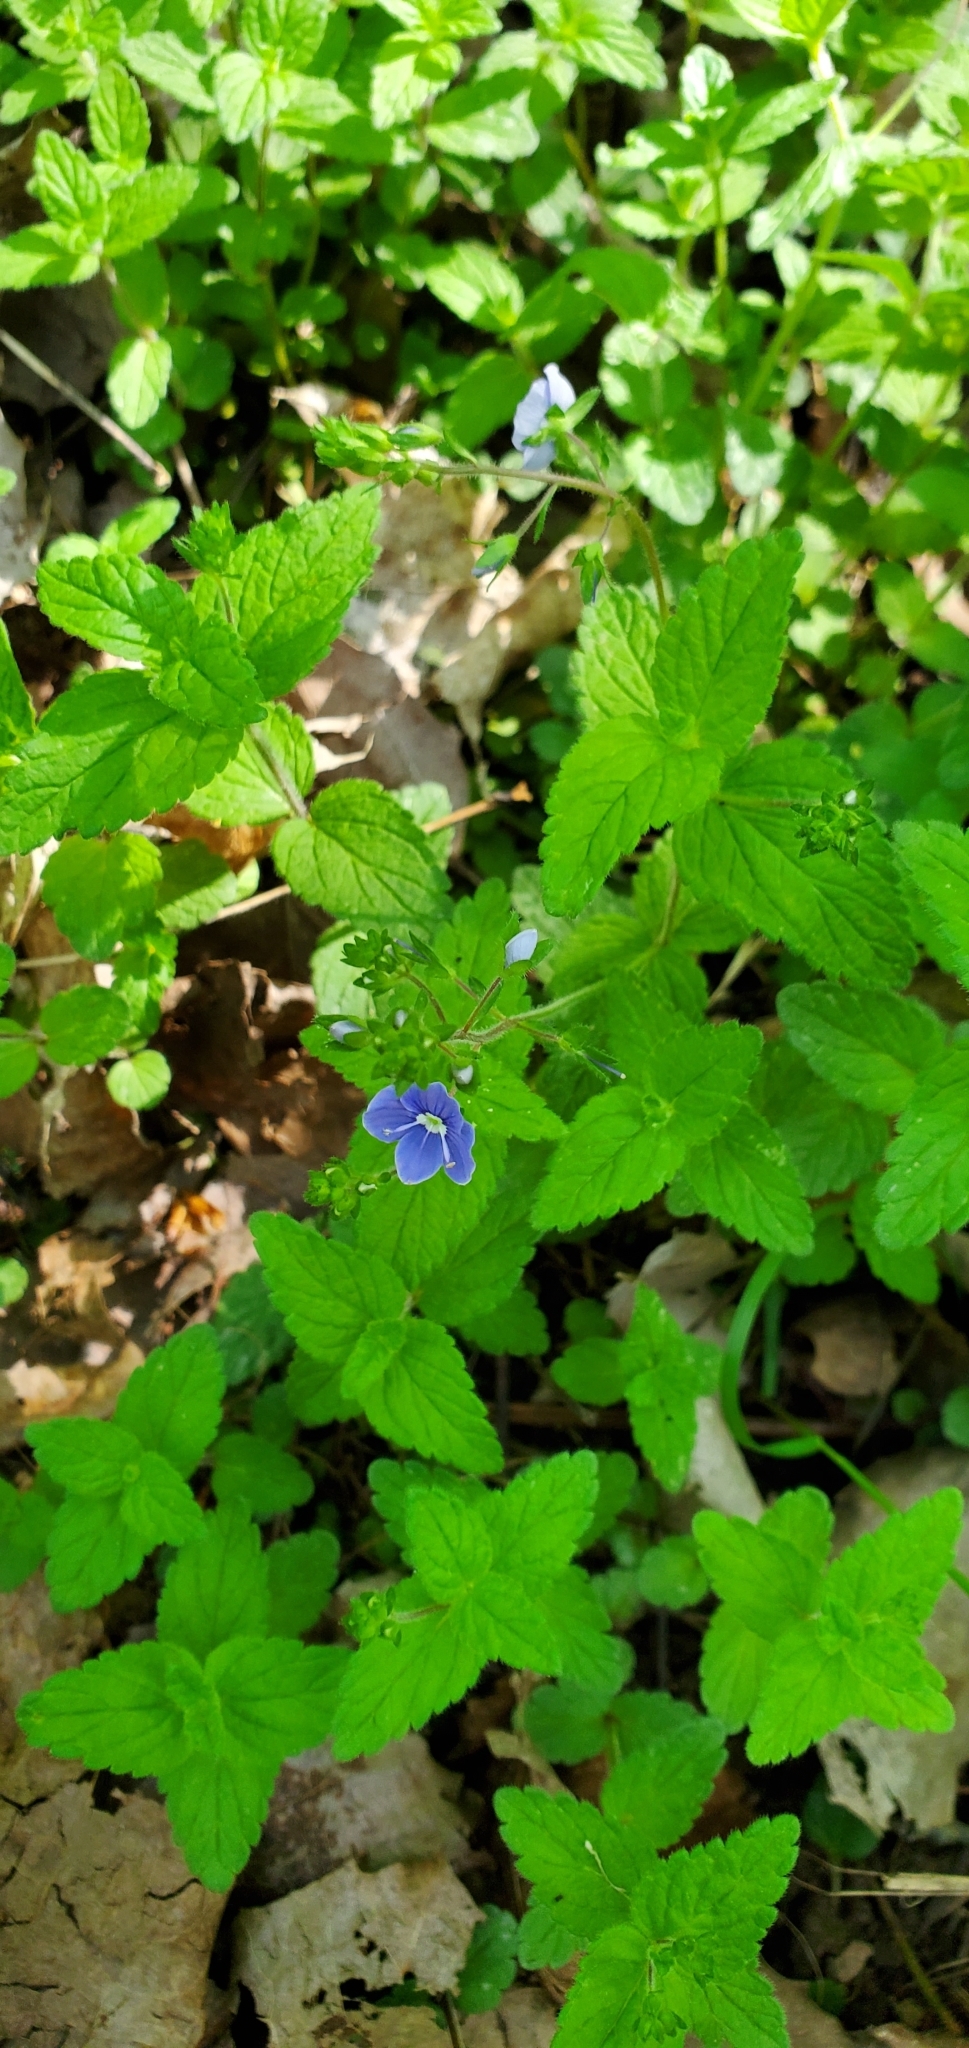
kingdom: Plantae
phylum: Tracheophyta
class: Magnoliopsida
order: Lamiales
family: Plantaginaceae
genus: Veronica
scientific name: Veronica chamaedrys
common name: Germander speedwell
